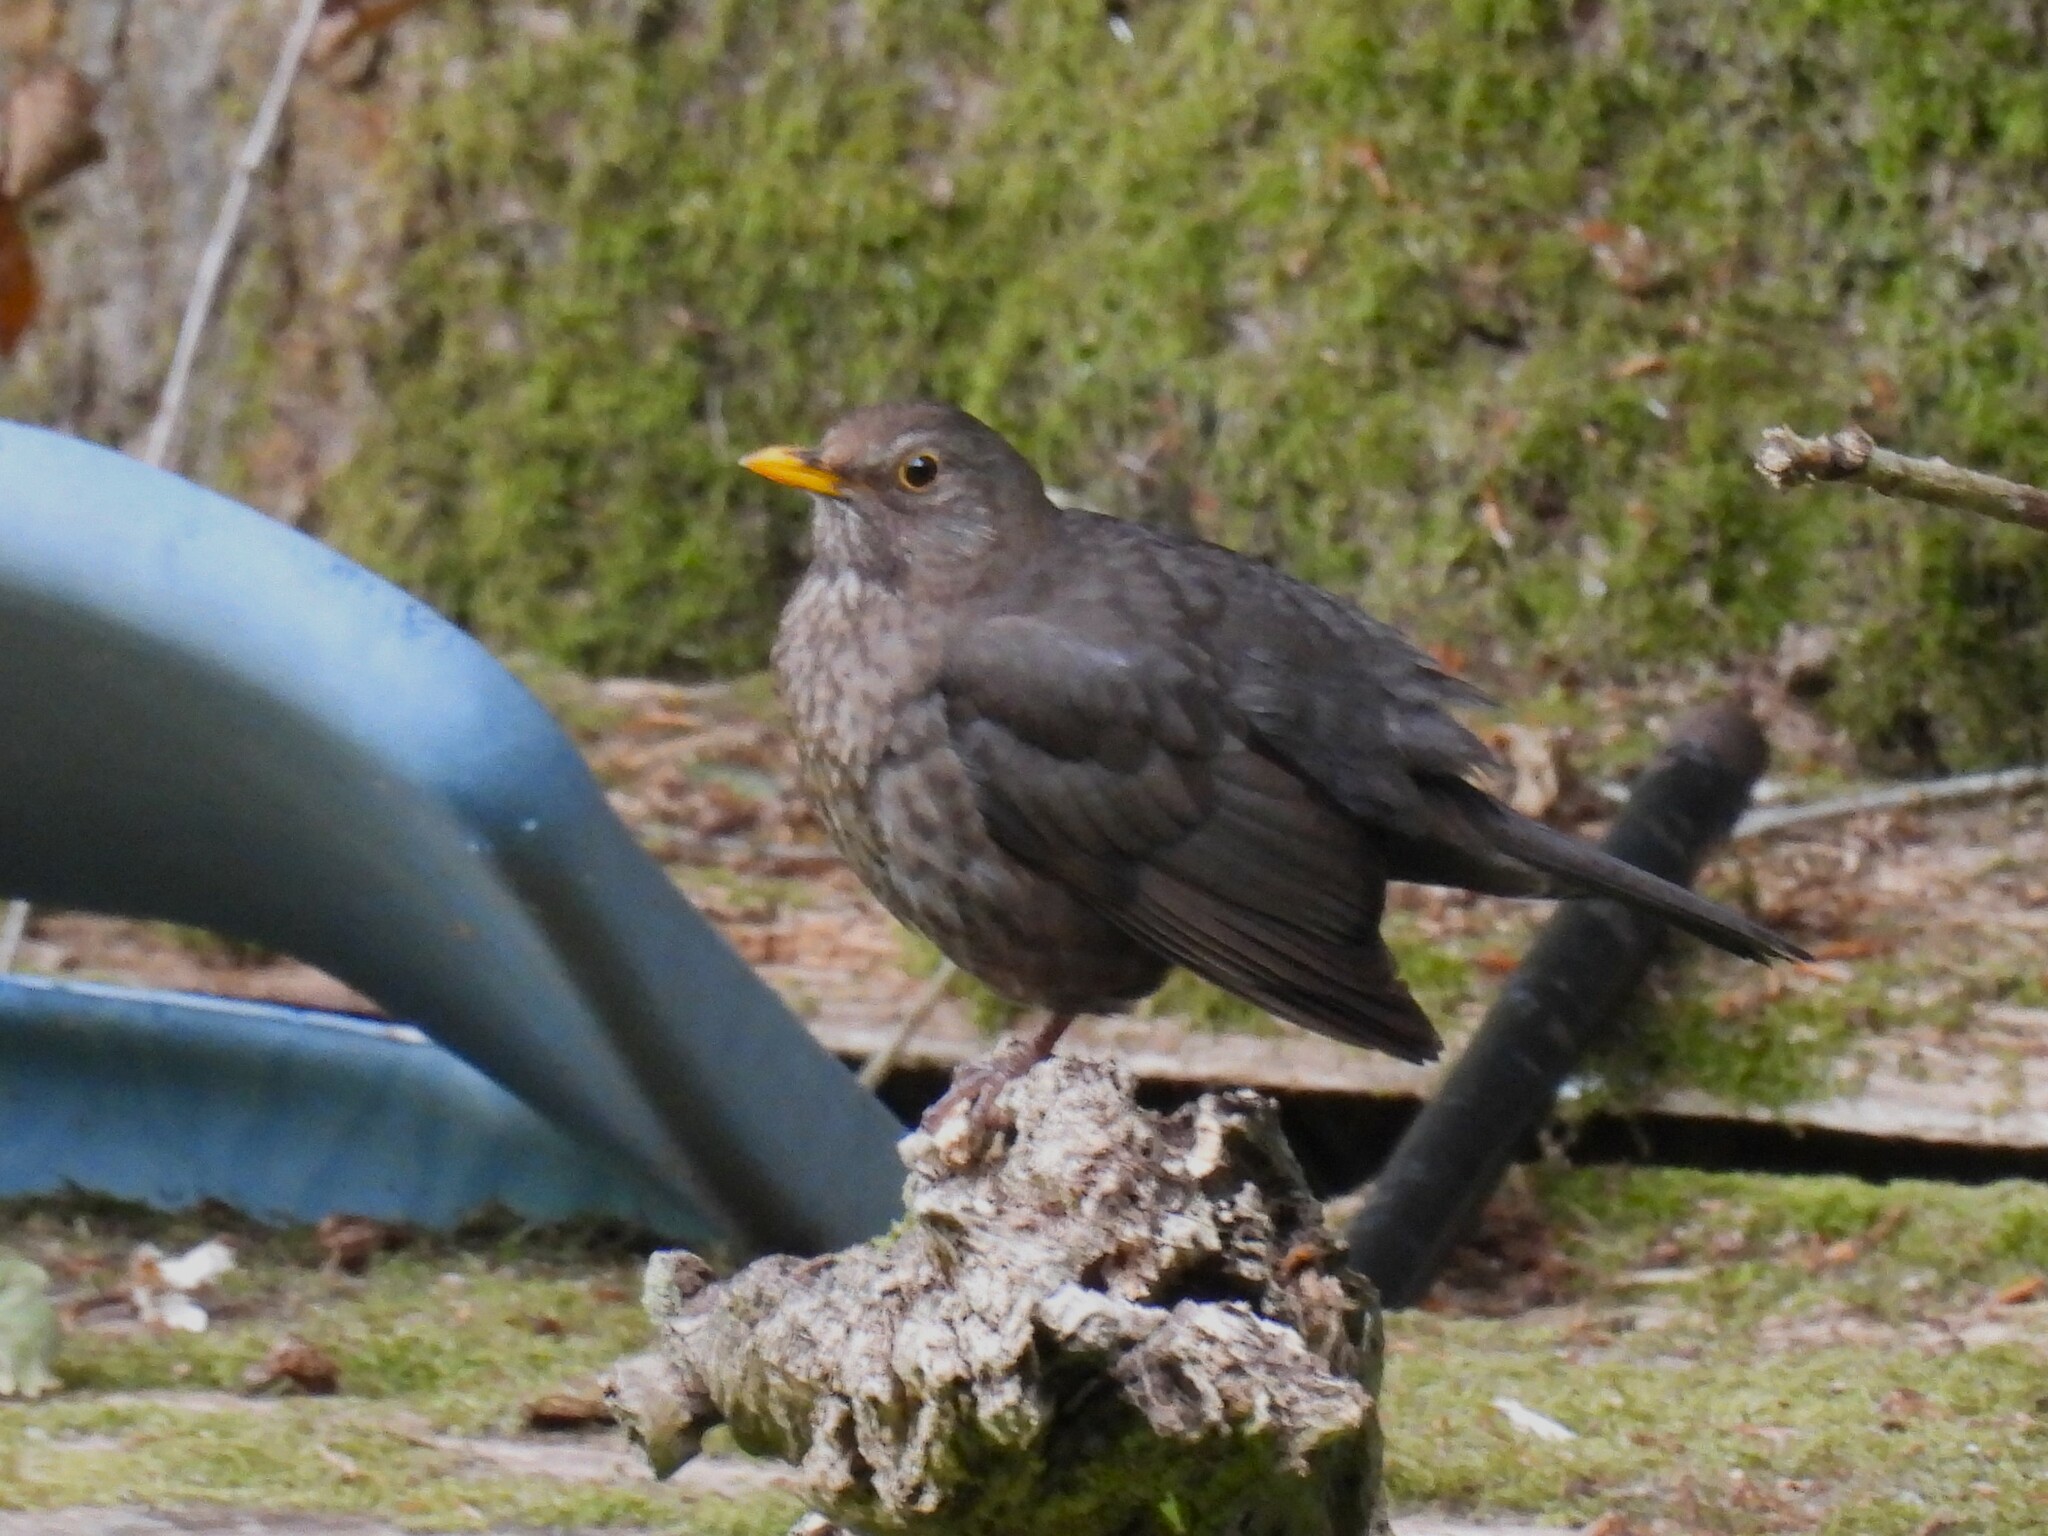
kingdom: Animalia
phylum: Chordata
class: Aves
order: Passeriformes
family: Turdidae
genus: Turdus
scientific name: Turdus merula
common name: Common blackbird
